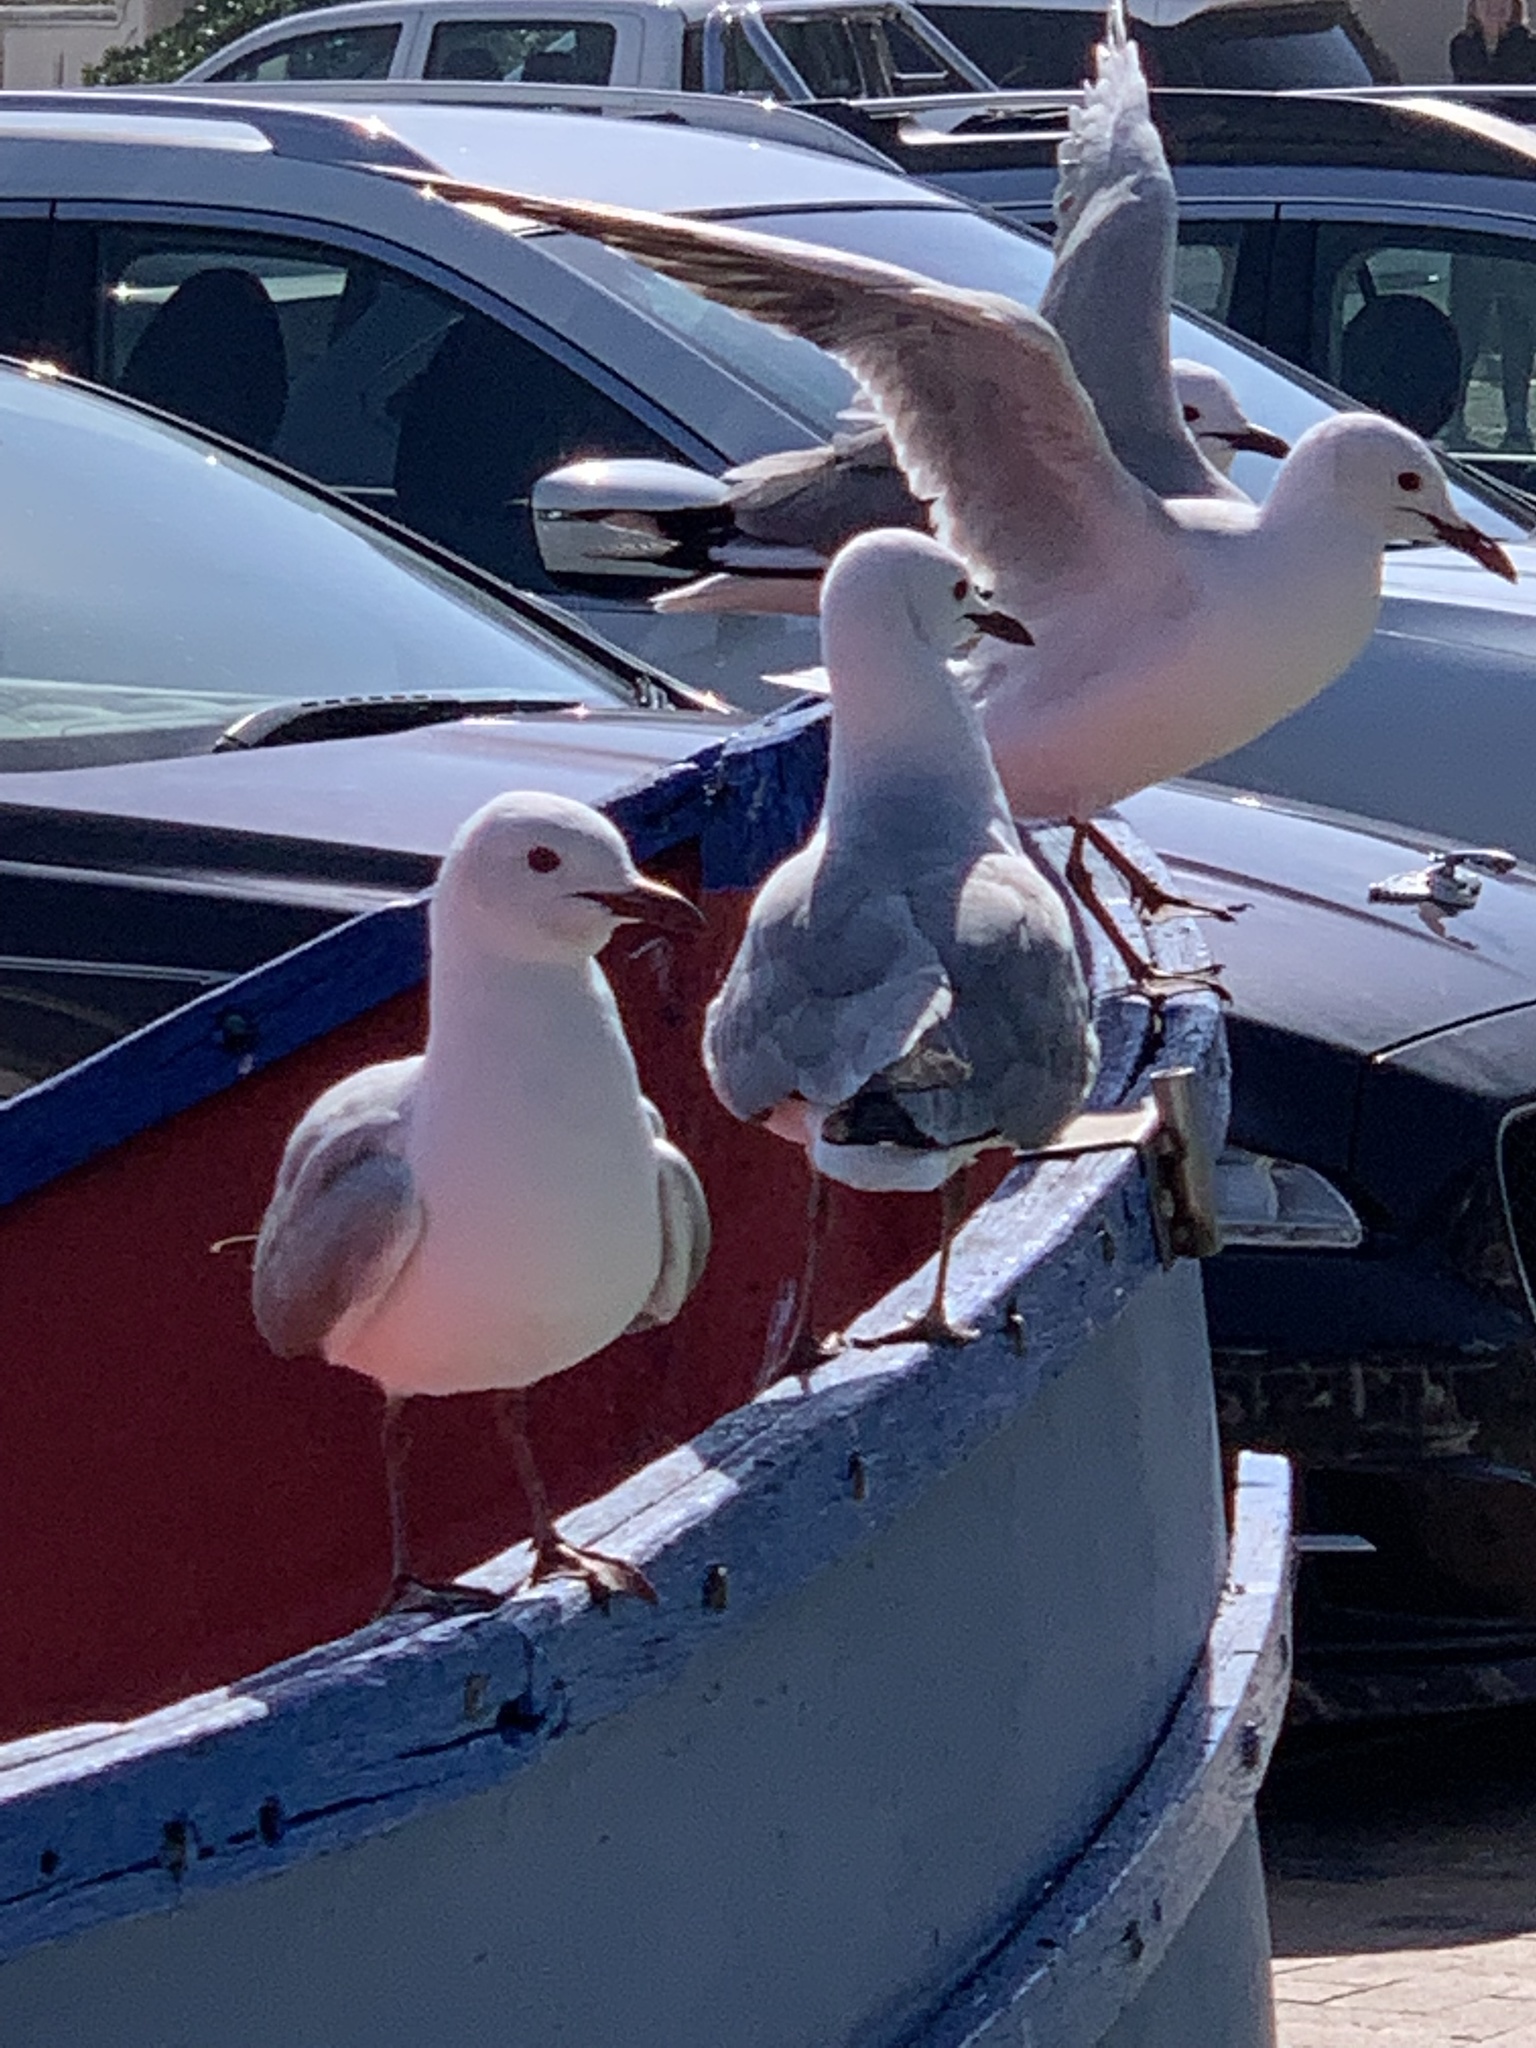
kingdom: Animalia
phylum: Chordata
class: Aves
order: Charadriiformes
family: Laridae
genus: Chroicocephalus
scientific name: Chroicocephalus hartlaubii
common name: Hartlaub's gull
